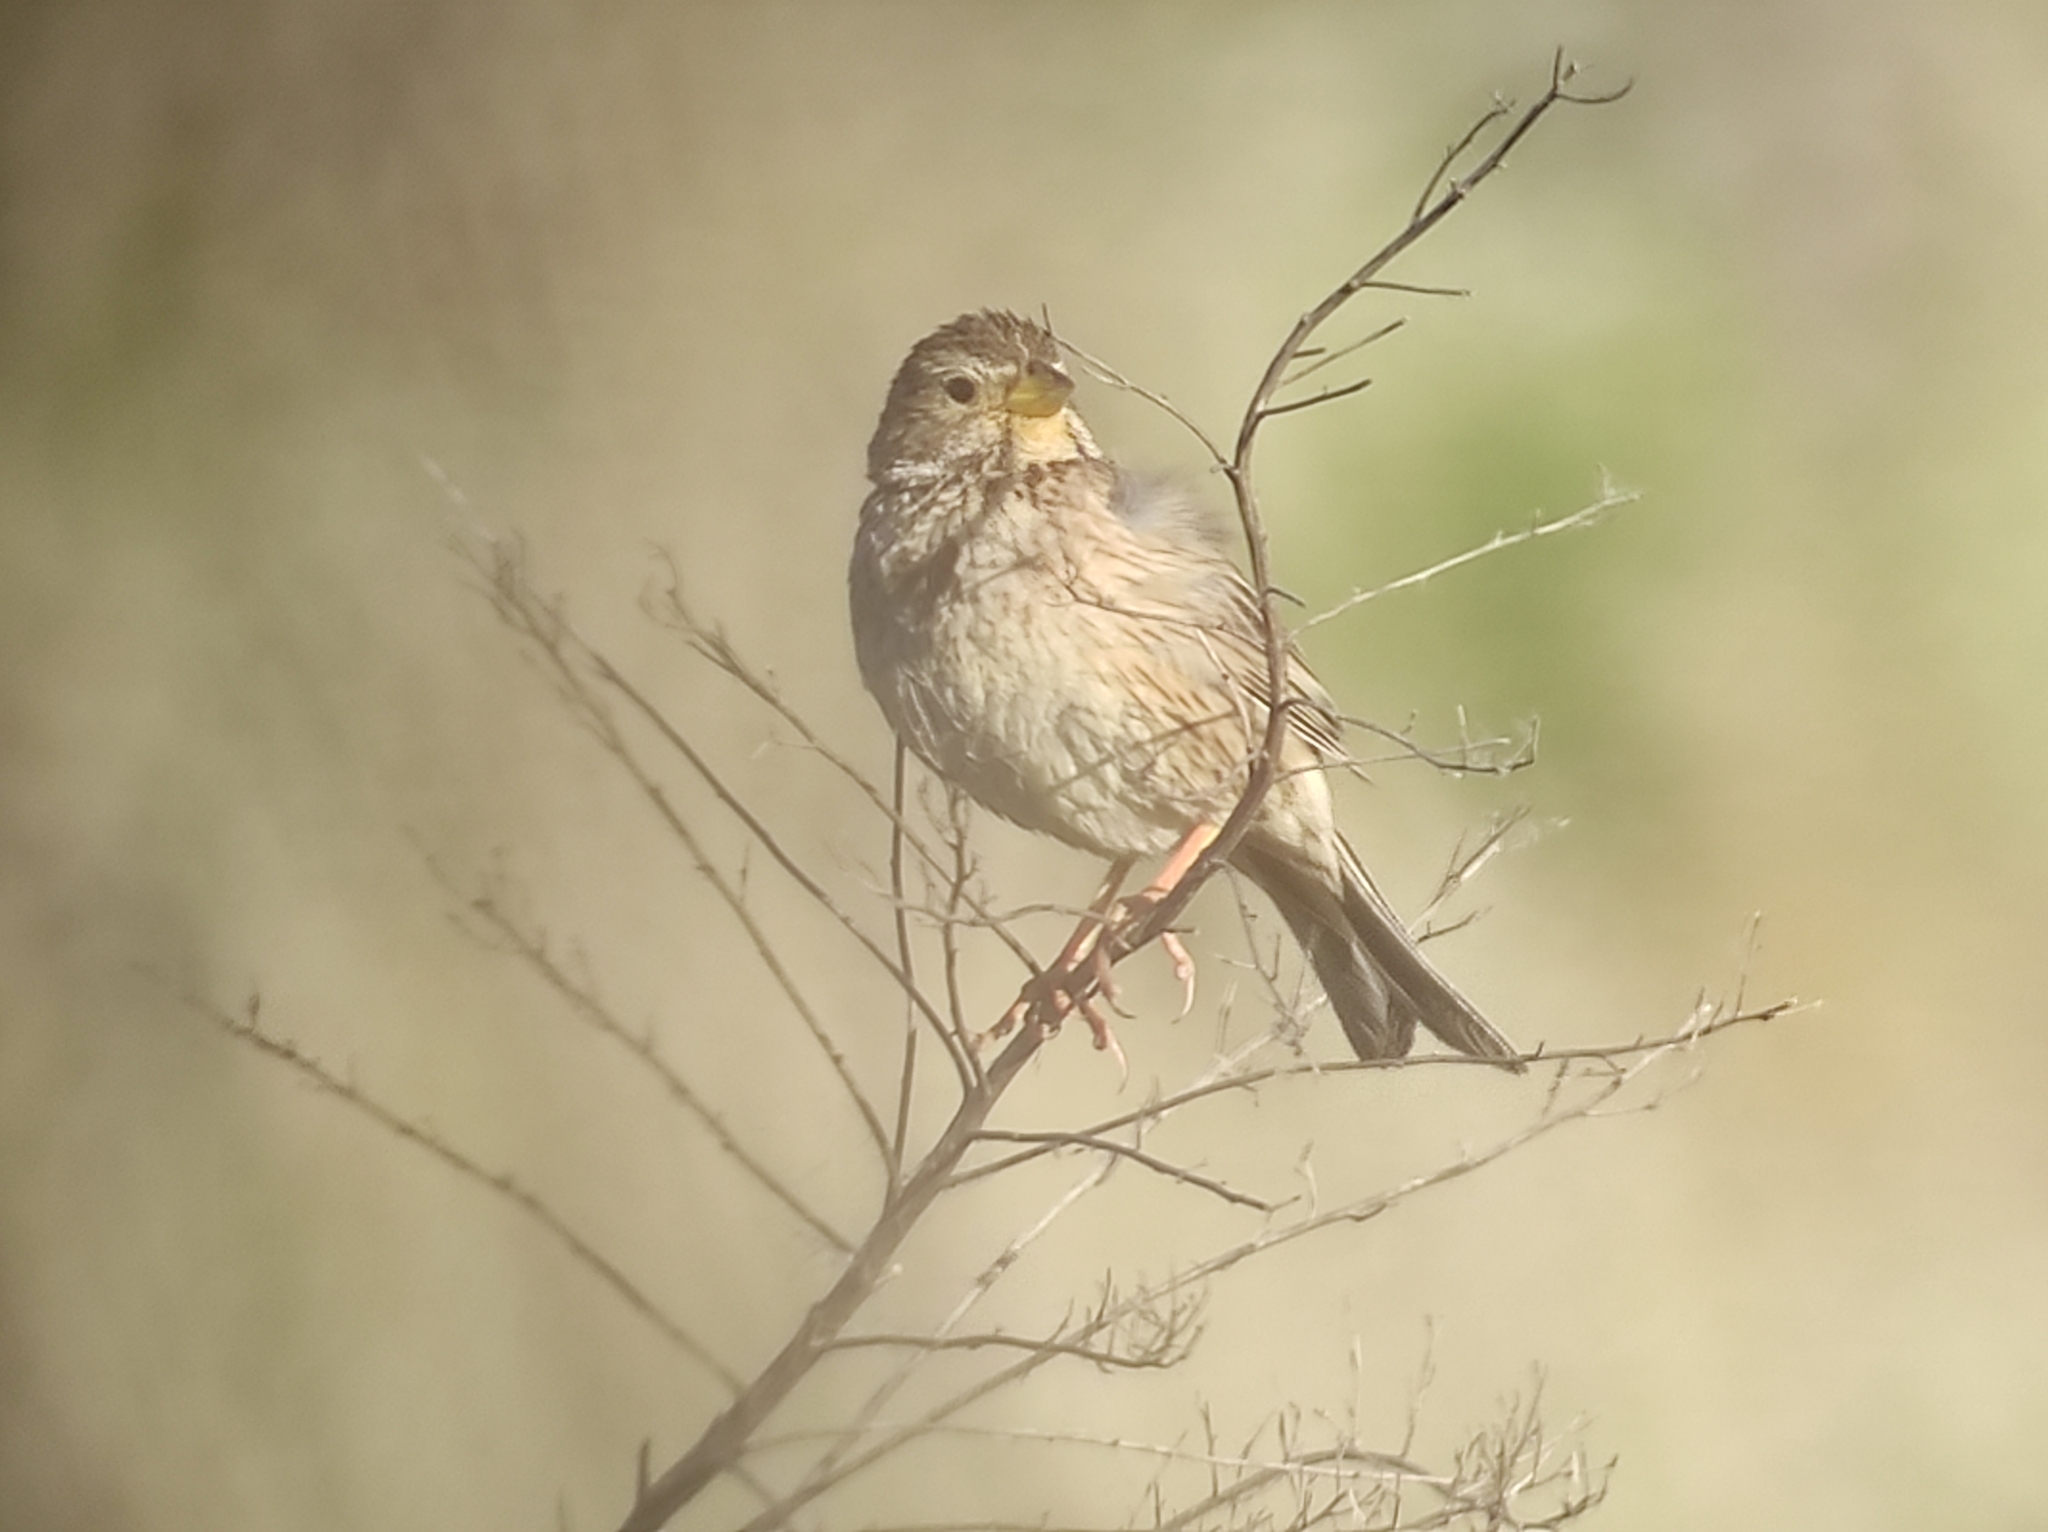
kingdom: Animalia
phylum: Chordata
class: Aves
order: Passeriformes
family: Emberizidae
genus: Emberiza
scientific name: Emberiza calandra
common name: Corn bunting
